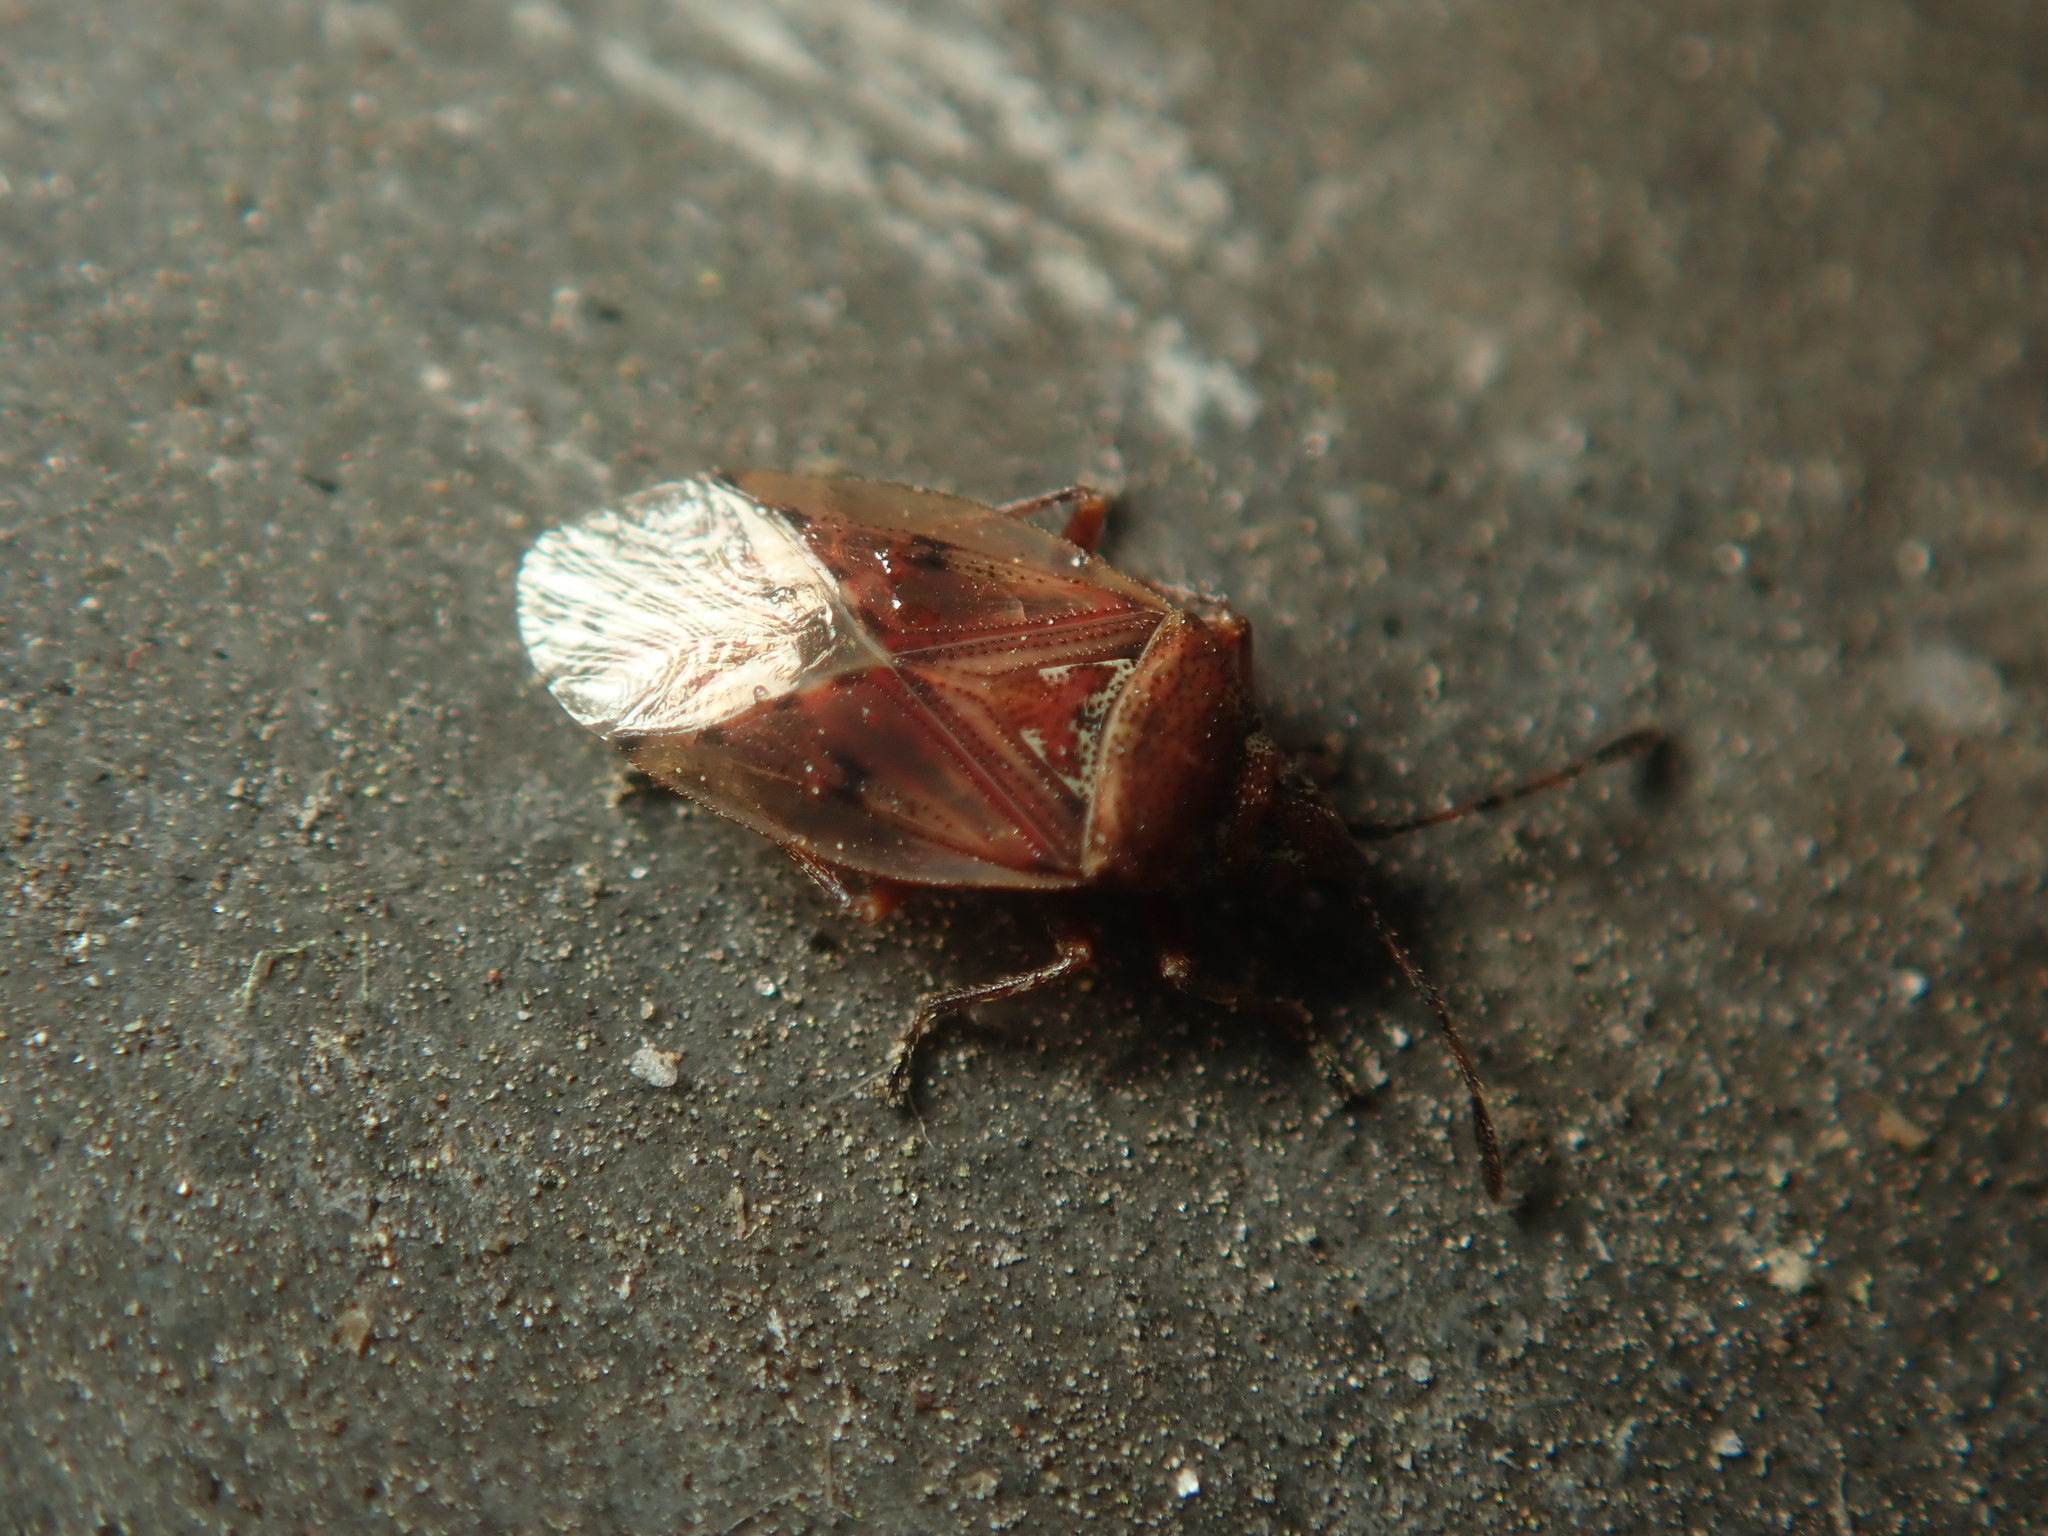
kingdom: Animalia
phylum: Arthropoda
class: Insecta
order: Hemiptera
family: Lygaeidae
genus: Kleidocerys
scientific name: Kleidocerys resedae
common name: Birch catkin bug
